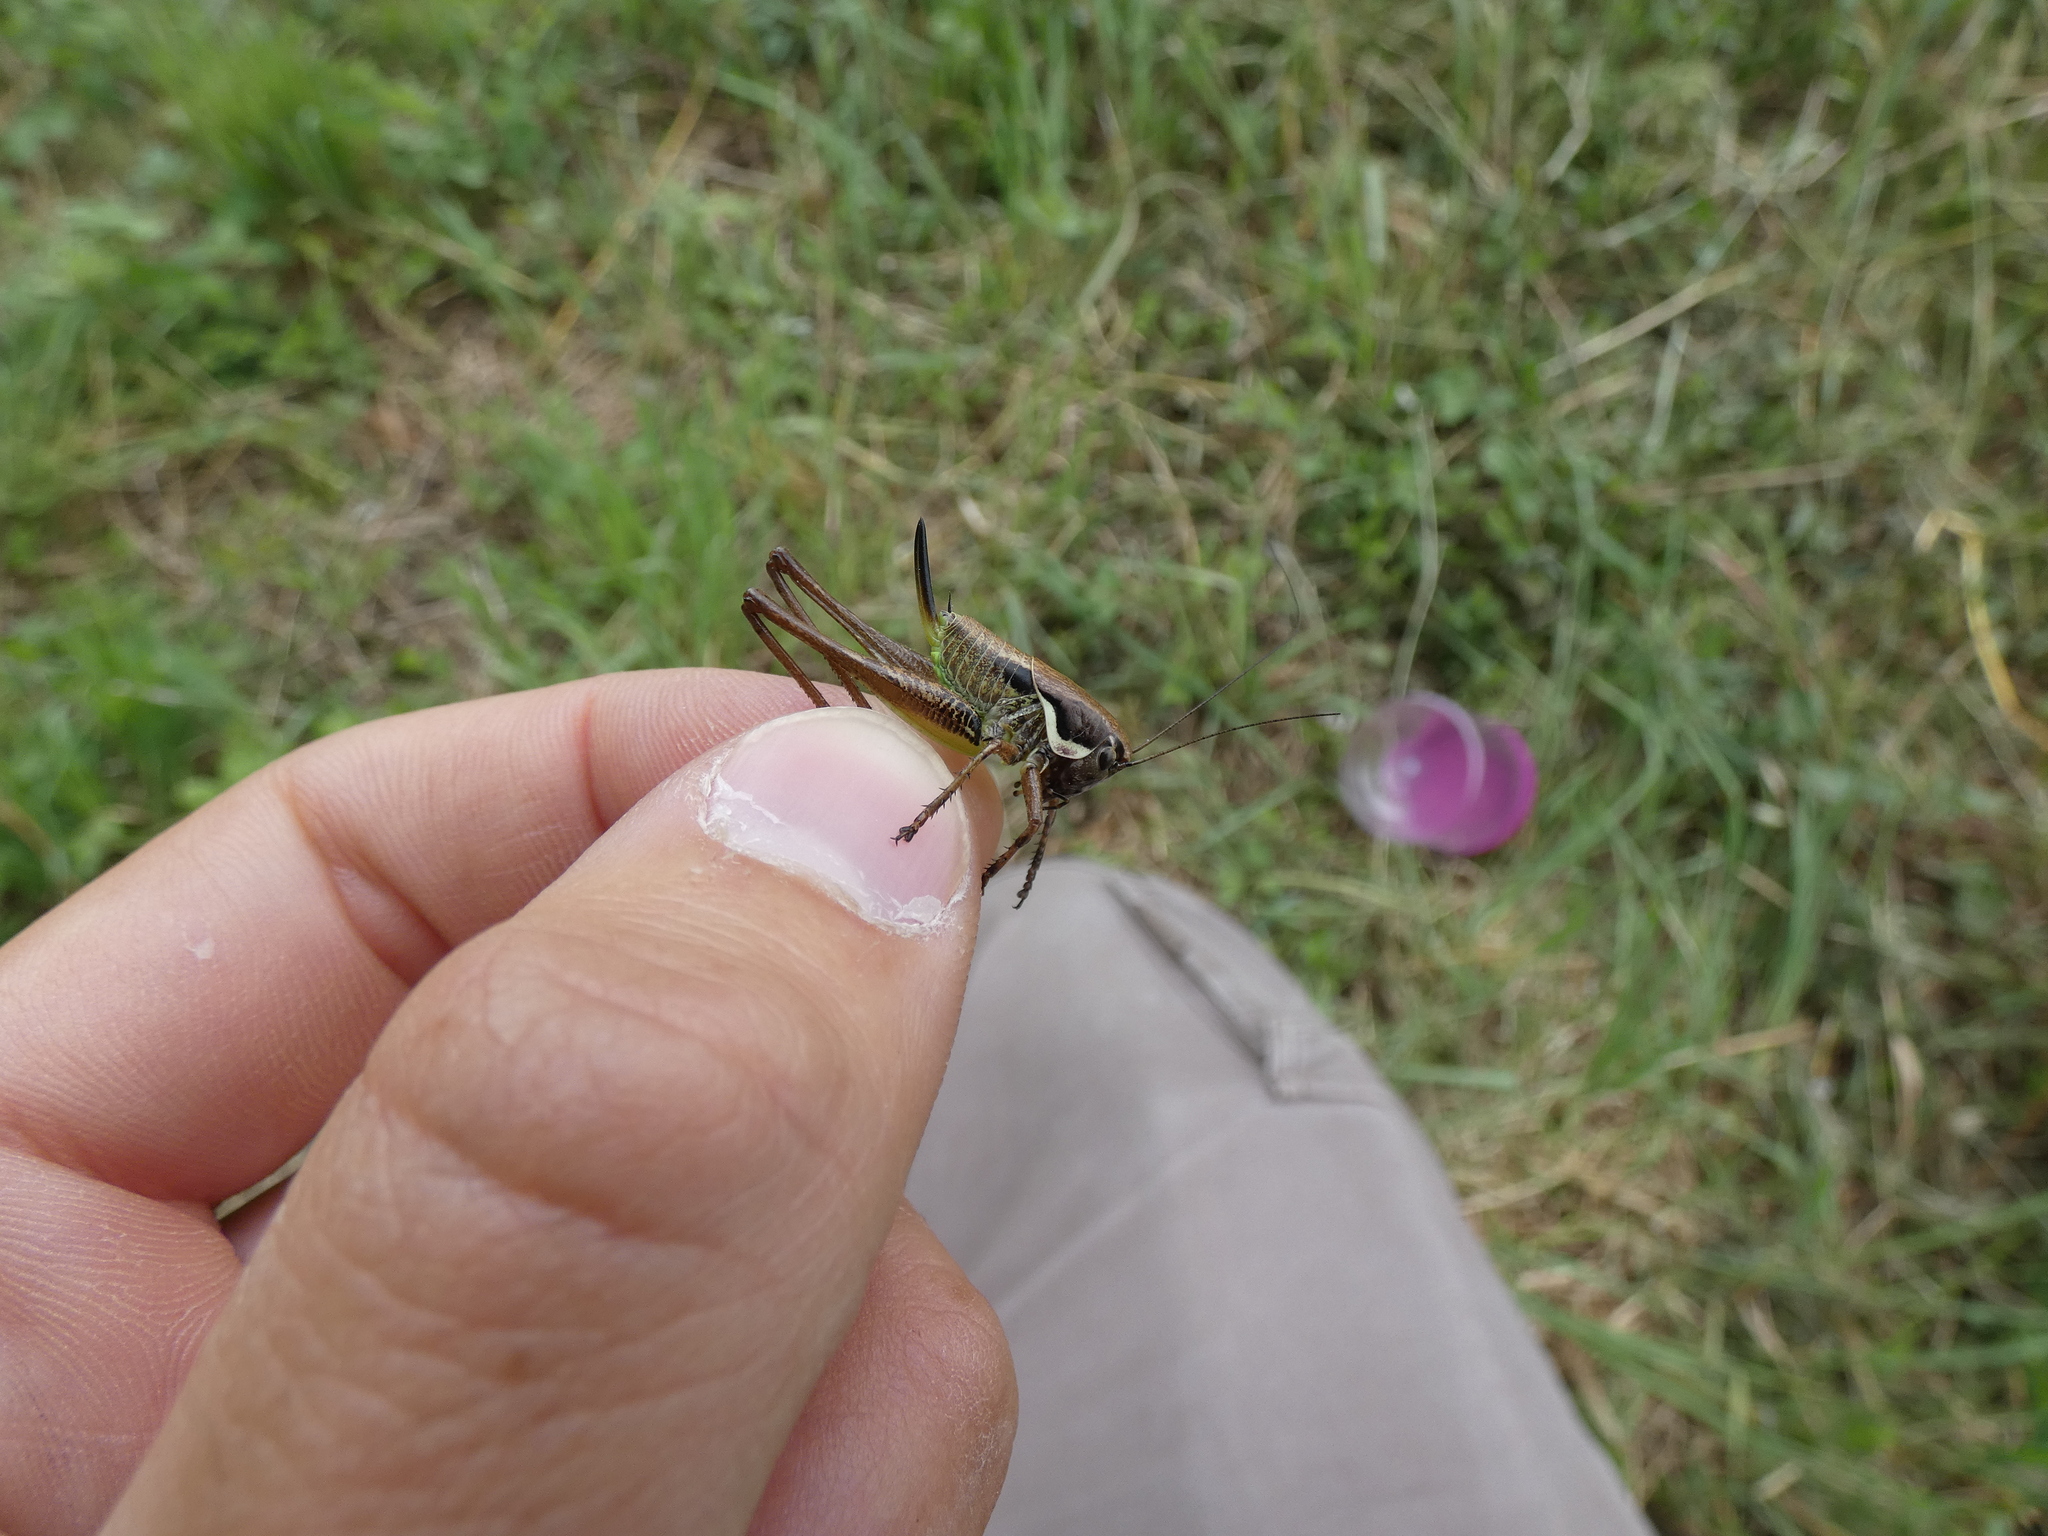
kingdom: Animalia
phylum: Arthropoda
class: Insecta
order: Orthoptera
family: Tettigoniidae
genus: Pholidoptera
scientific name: Pholidoptera femorata
